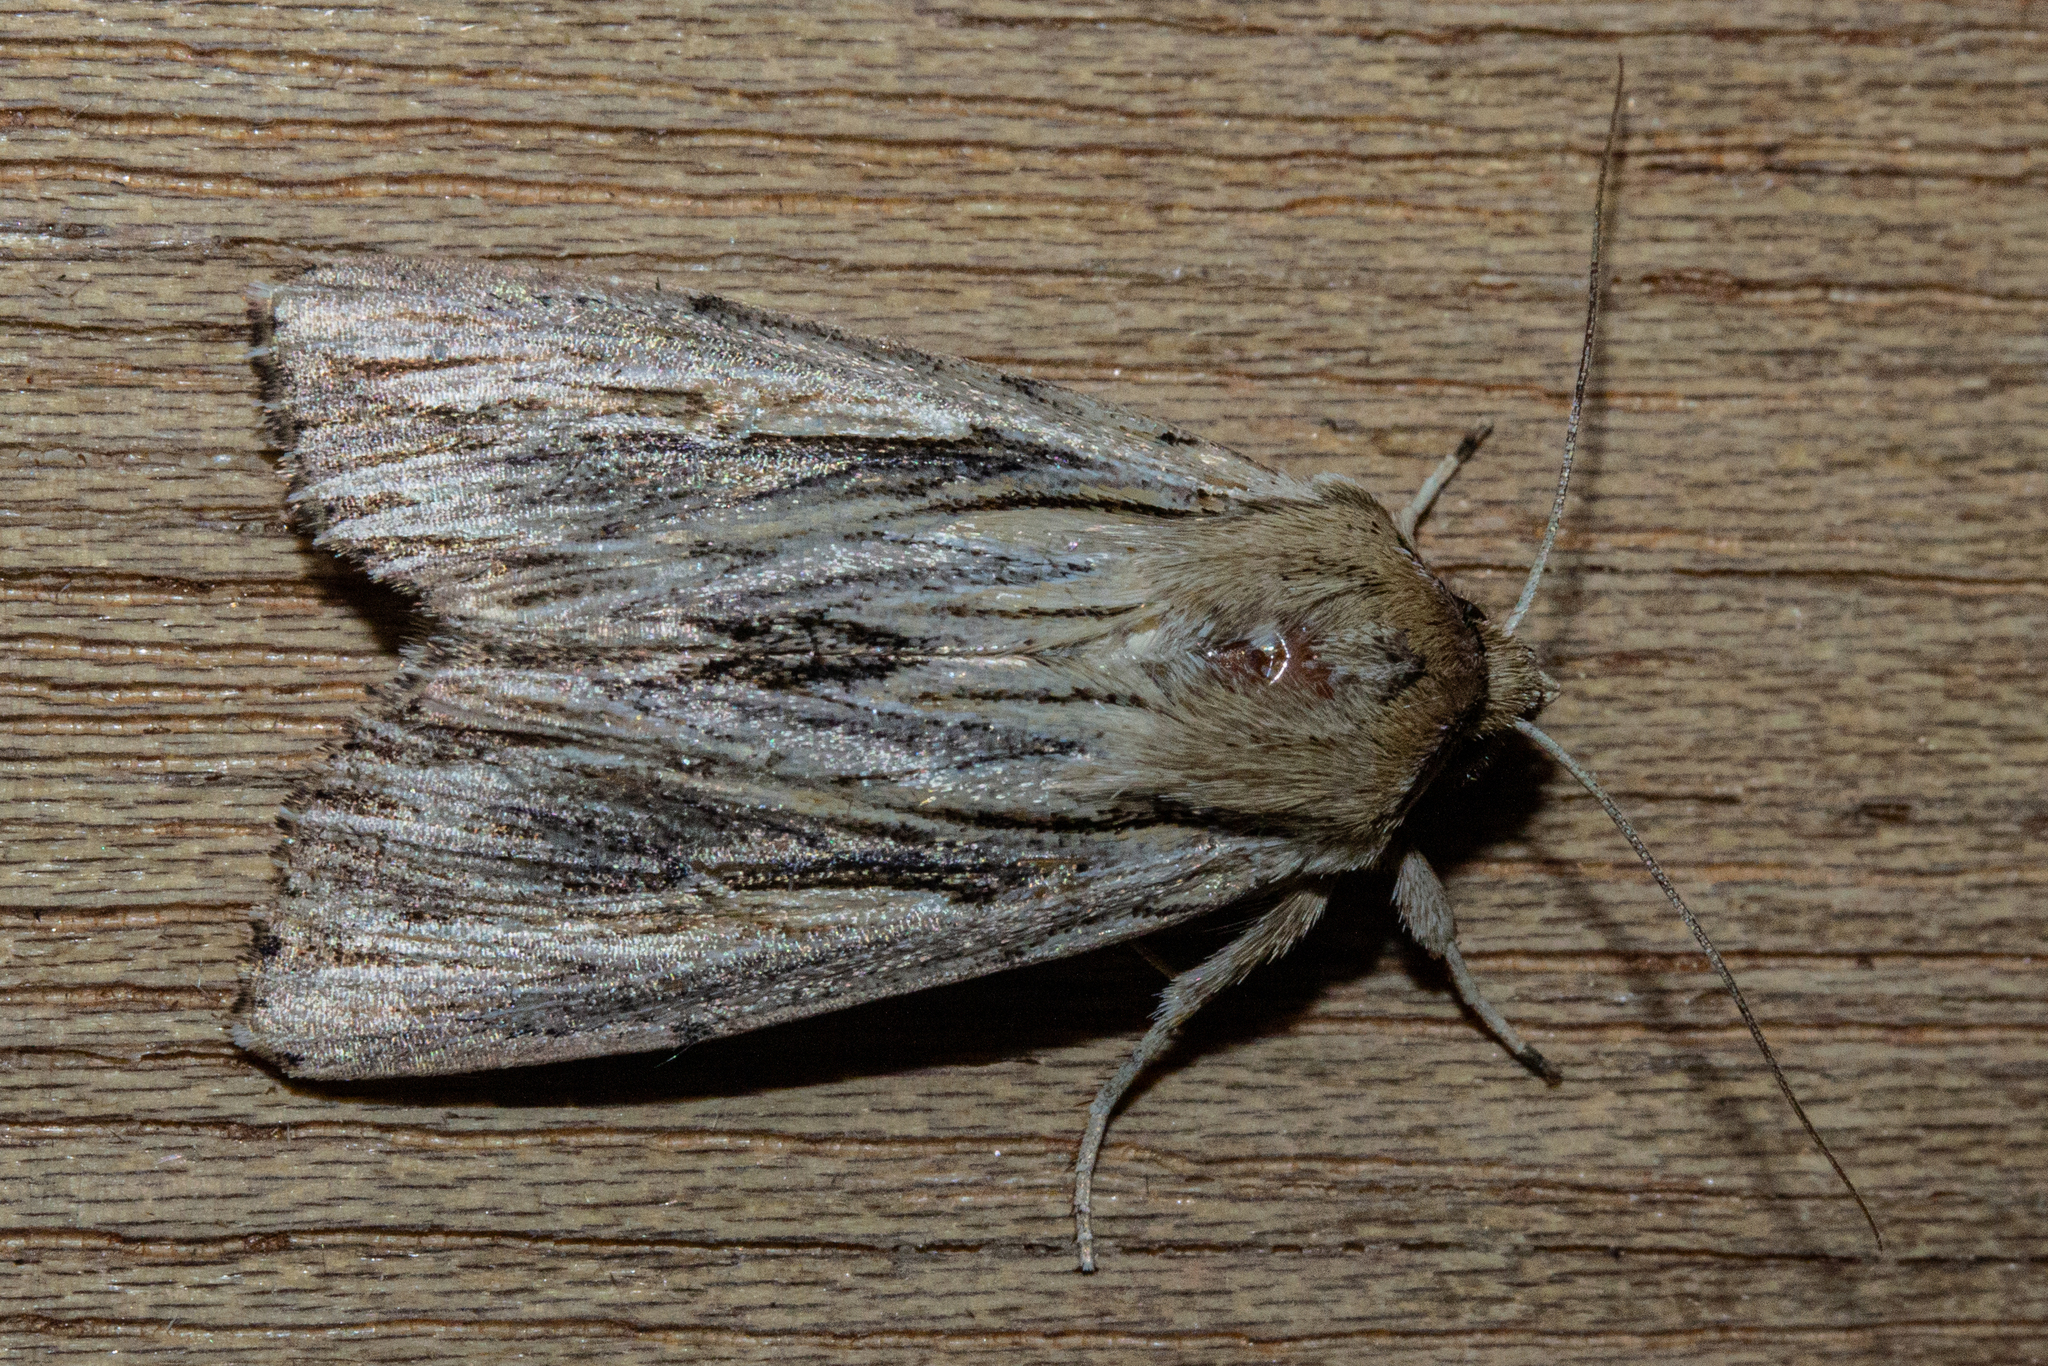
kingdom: Animalia
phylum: Arthropoda
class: Insecta
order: Lepidoptera
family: Noctuidae
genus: Persectania
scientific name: Persectania aversa
